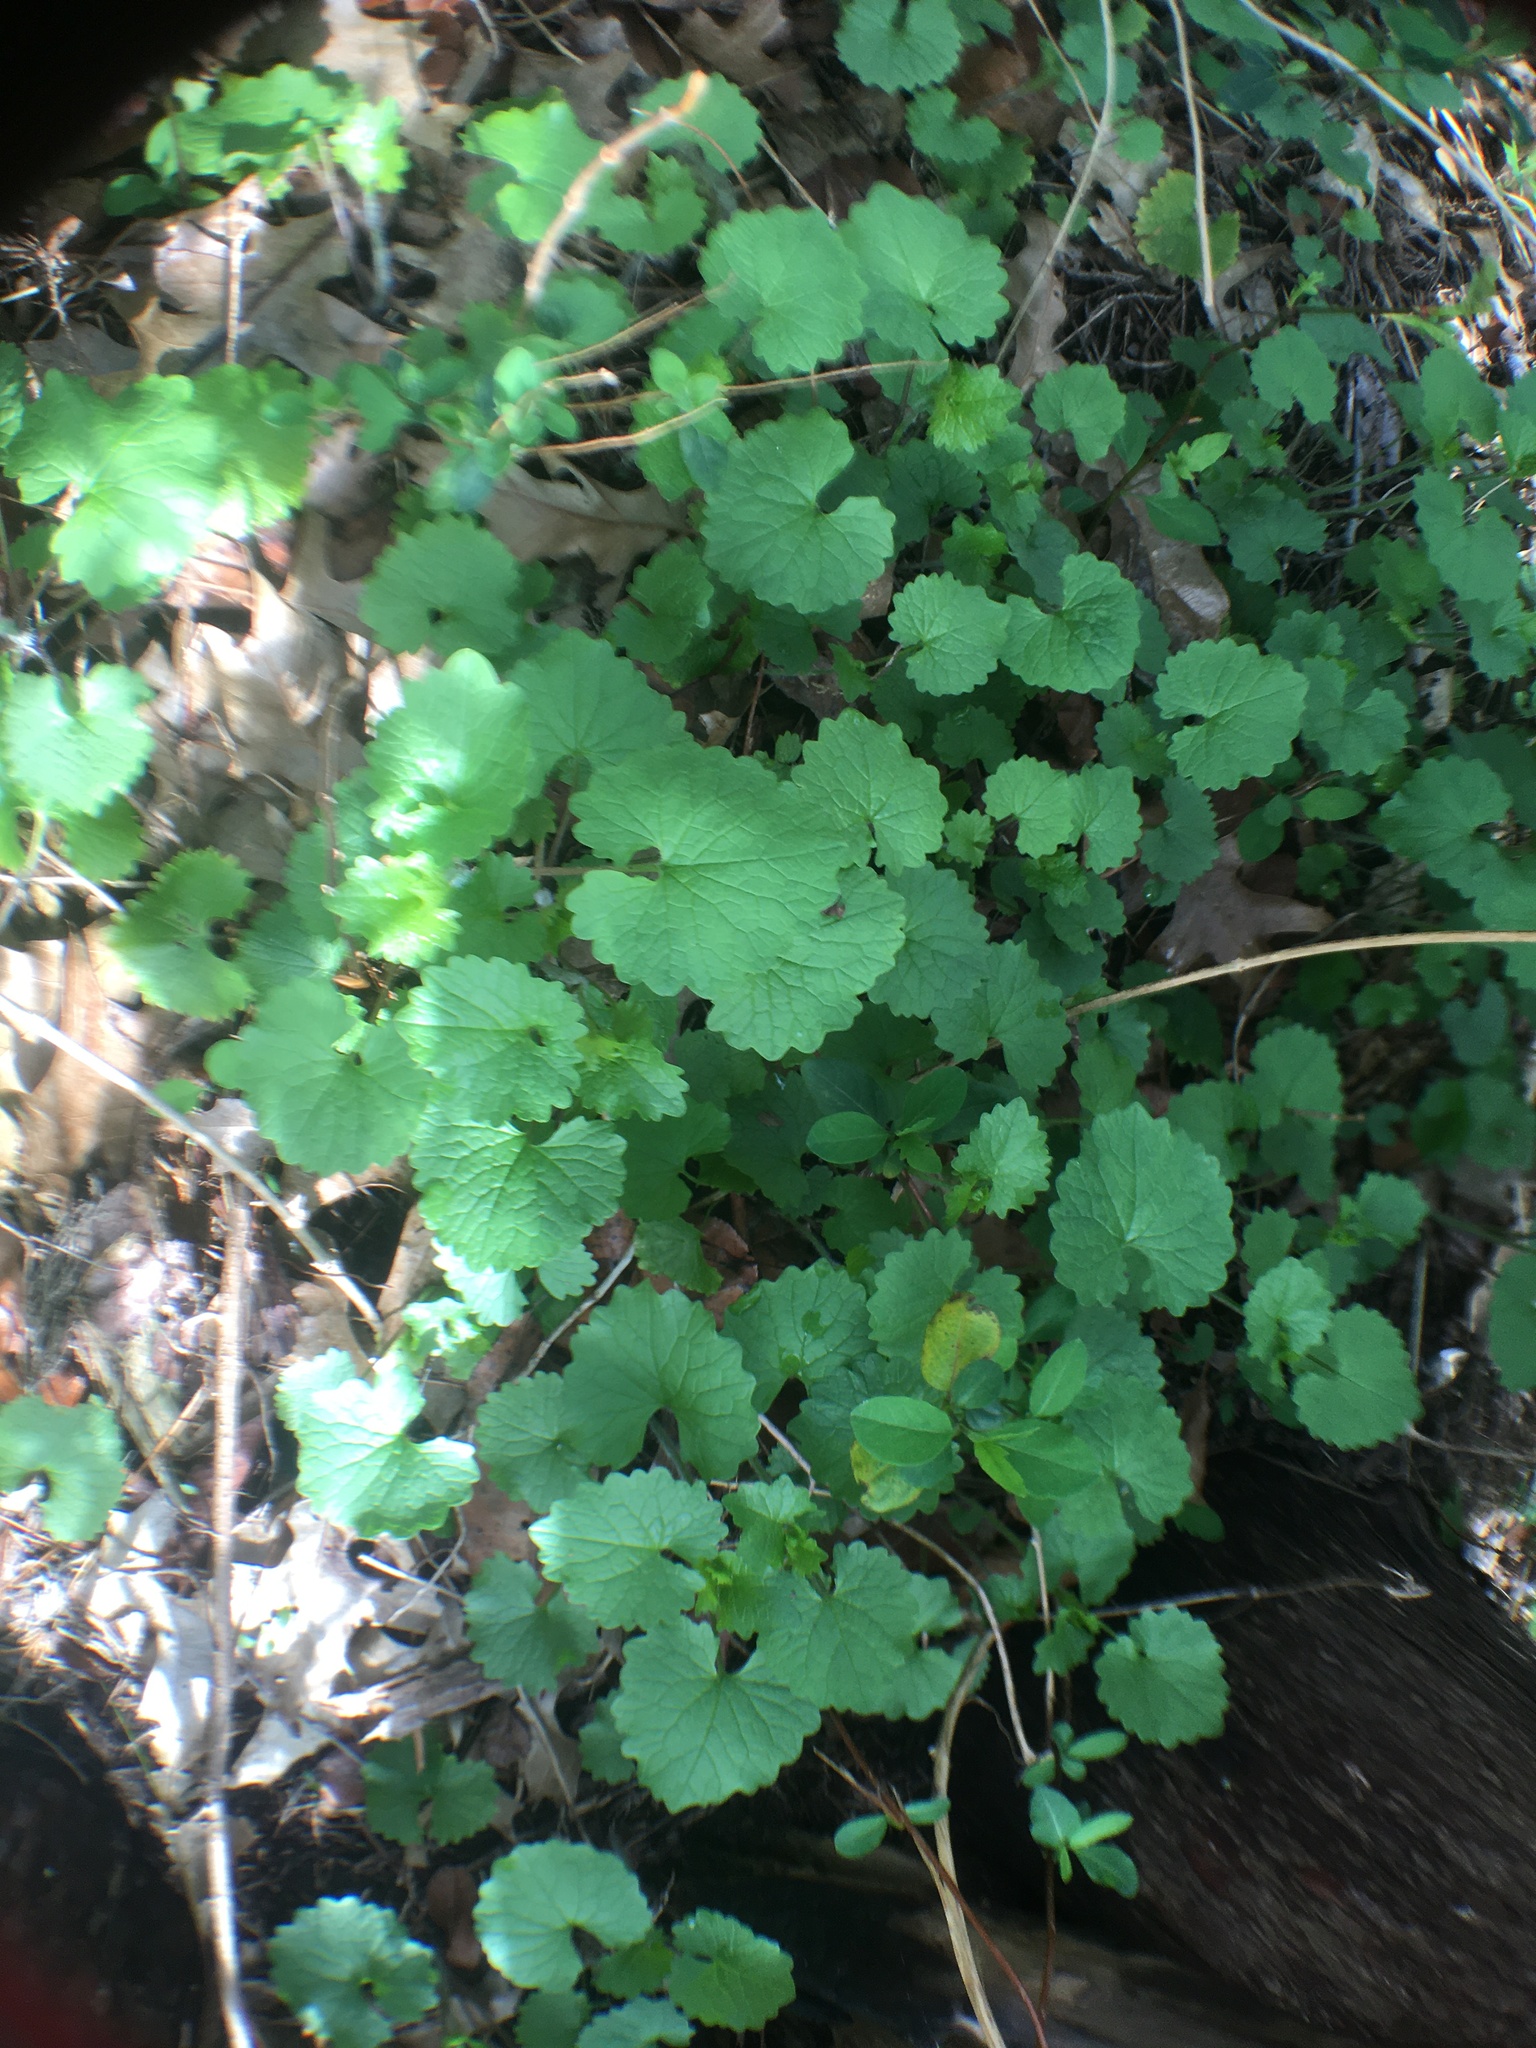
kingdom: Plantae
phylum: Tracheophyta
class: Magnoliopsida
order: Brassicales
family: Brassicaceae
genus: Alliaria
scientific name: Alliaria petiolata
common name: Garlic mustard
